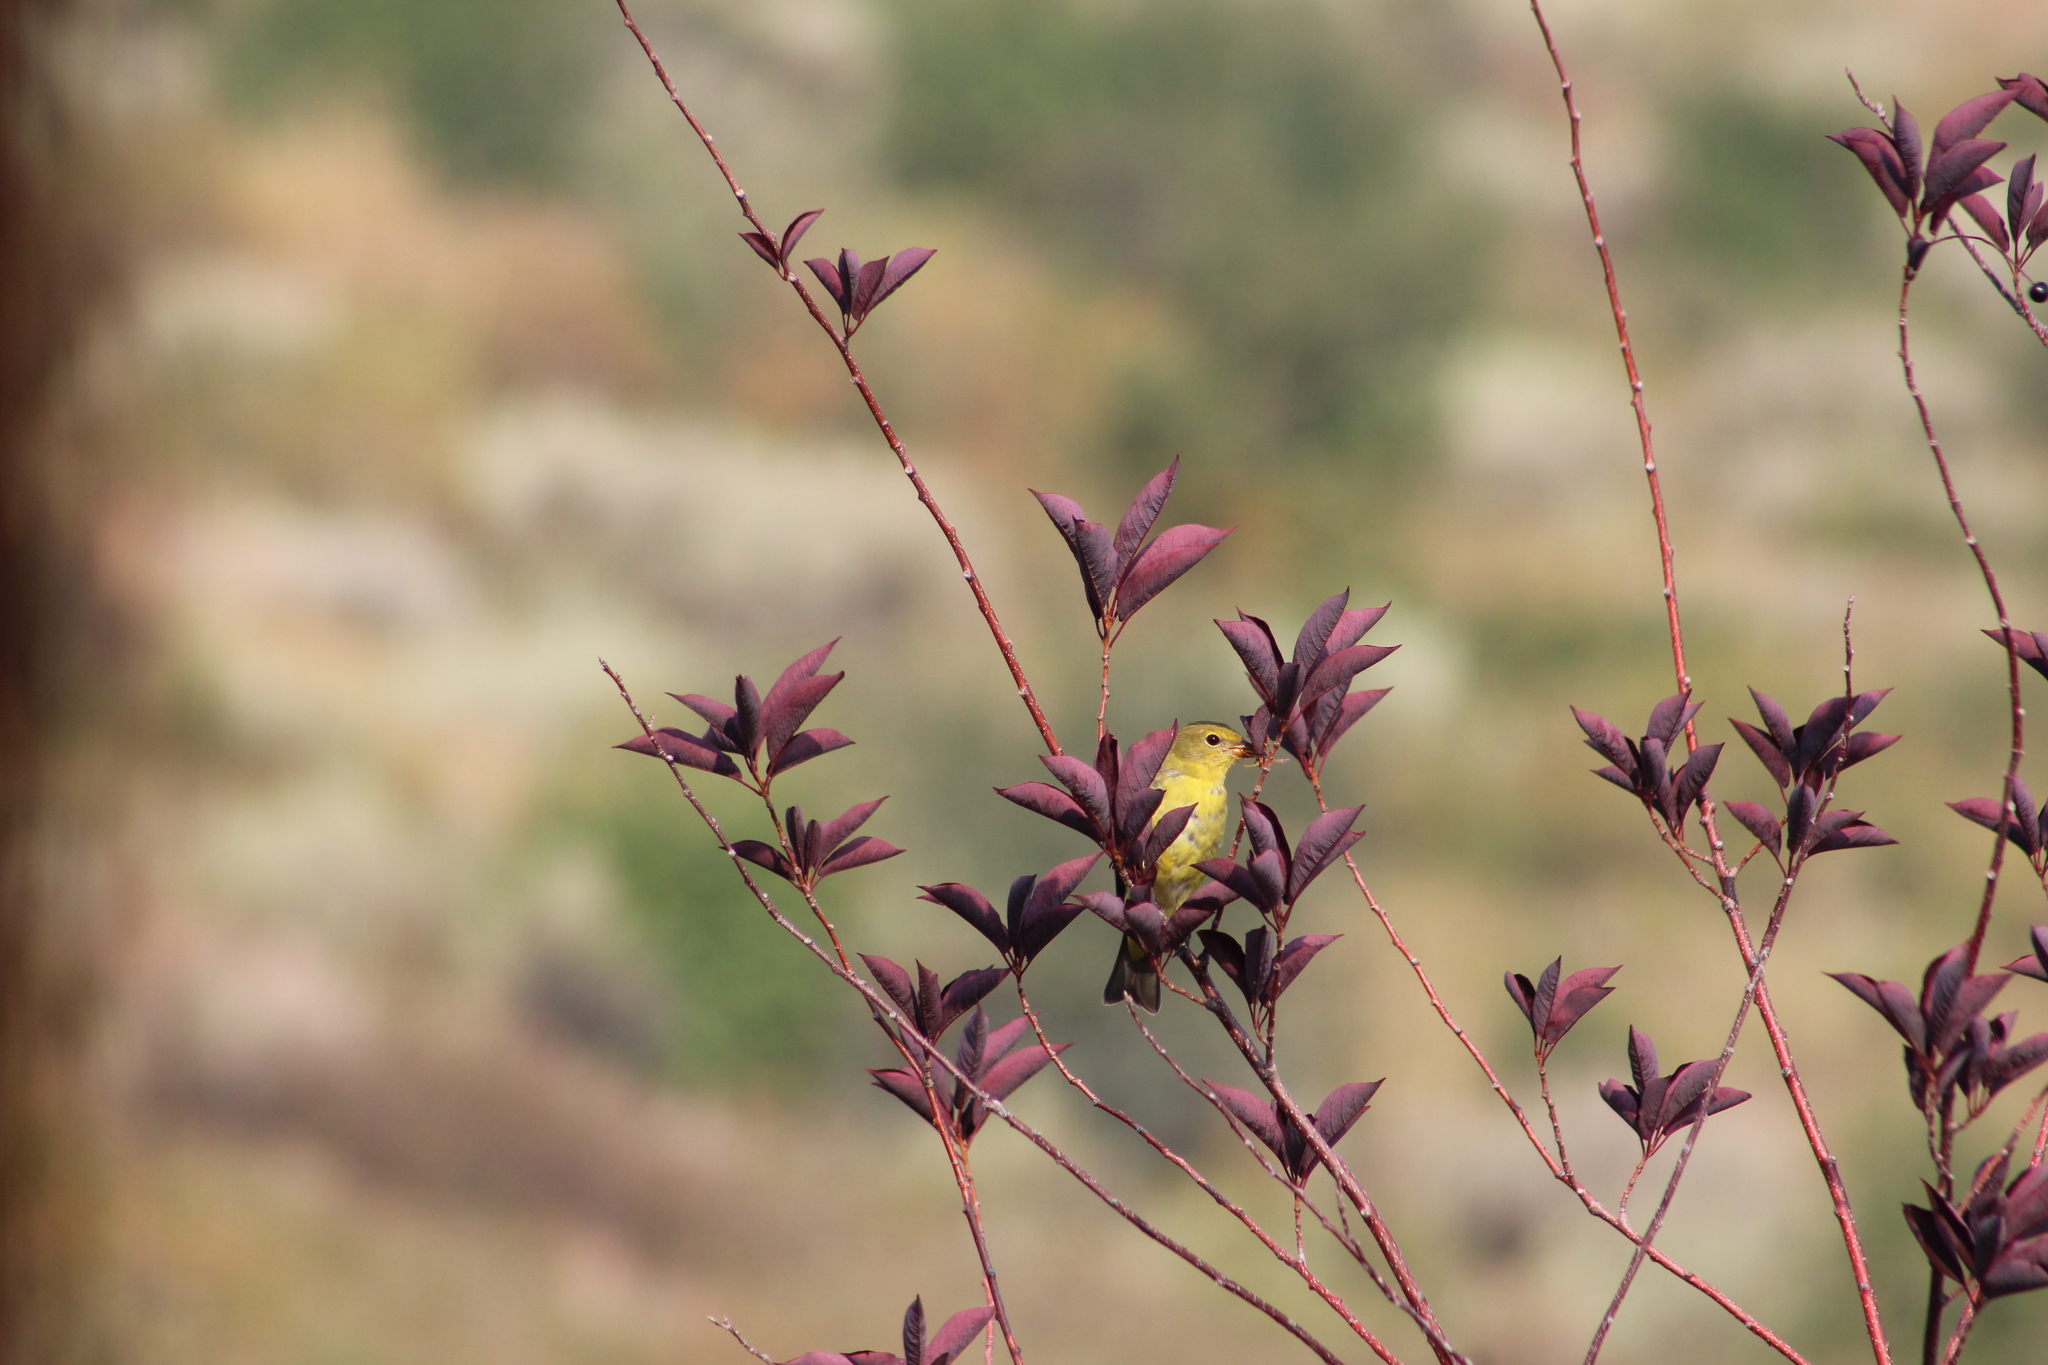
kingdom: Animalia
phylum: Chordata
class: Aves
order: Passeriformes
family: Cardinalidae
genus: Piranga
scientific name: Piranga ludoviciana
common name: Western tanager
